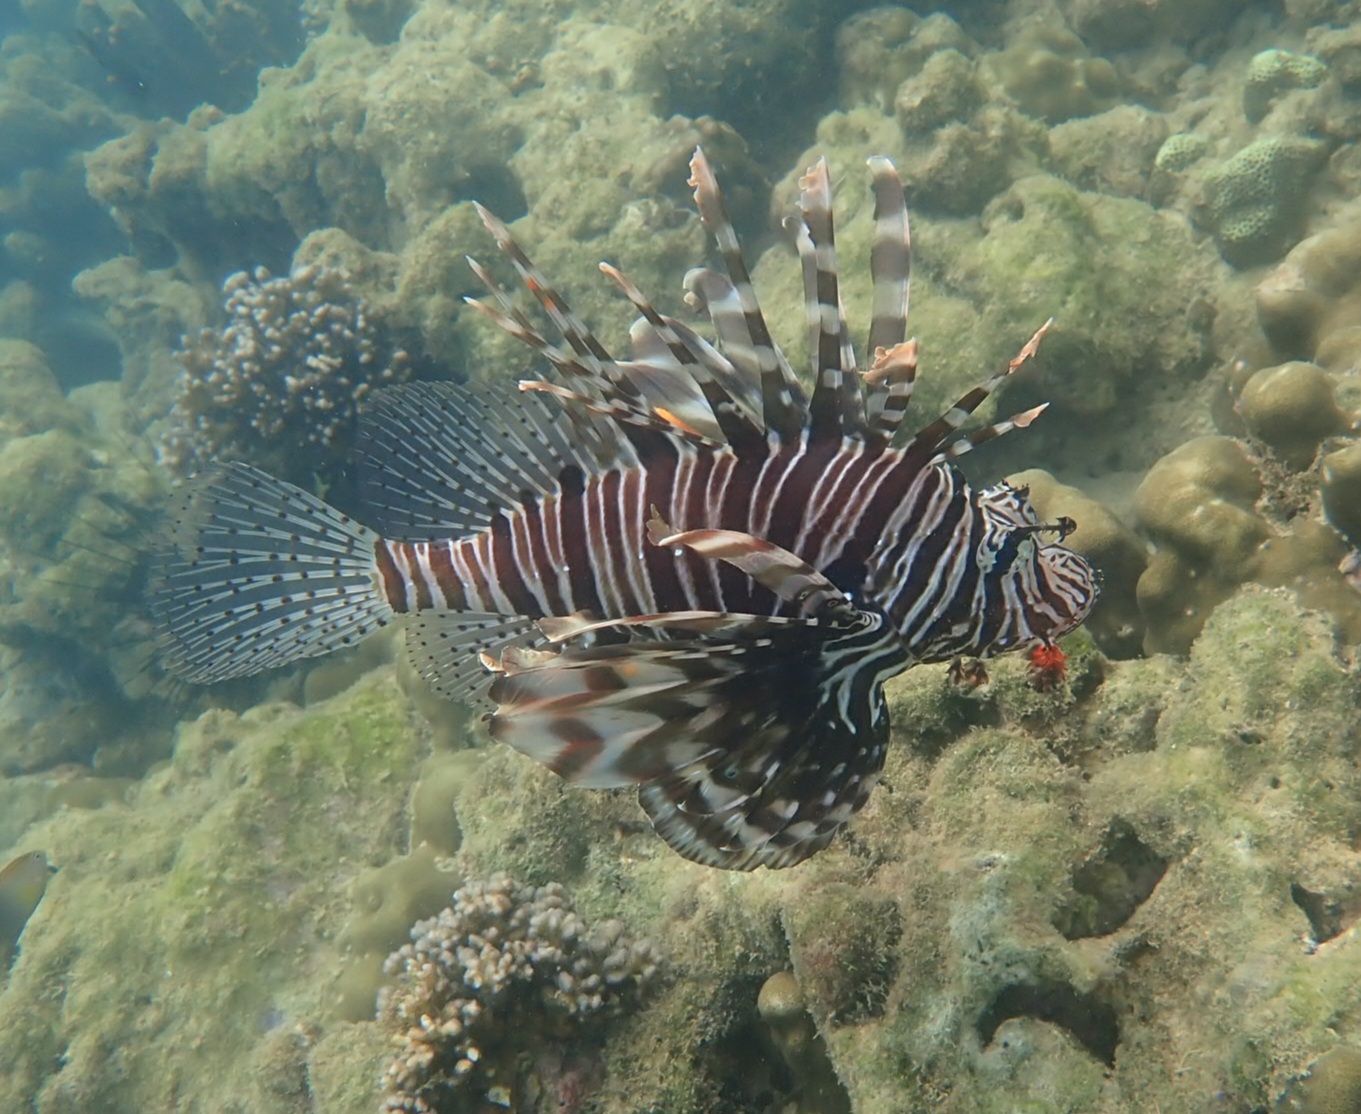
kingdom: Animalia
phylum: Chordata
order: Scorpaeniformes
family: Scorpaenidae
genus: Pterois
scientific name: Pterois miles
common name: Devil firefish
